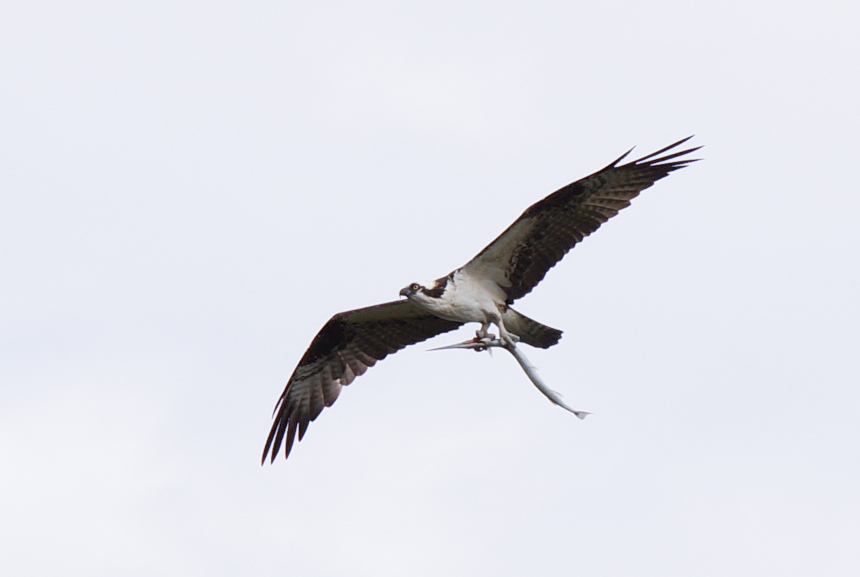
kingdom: Animalia
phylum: Chordata
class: Aves
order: Accipitriformes
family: Pandionidae
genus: Pandion
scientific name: Pandion haliaetus
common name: Osprey
